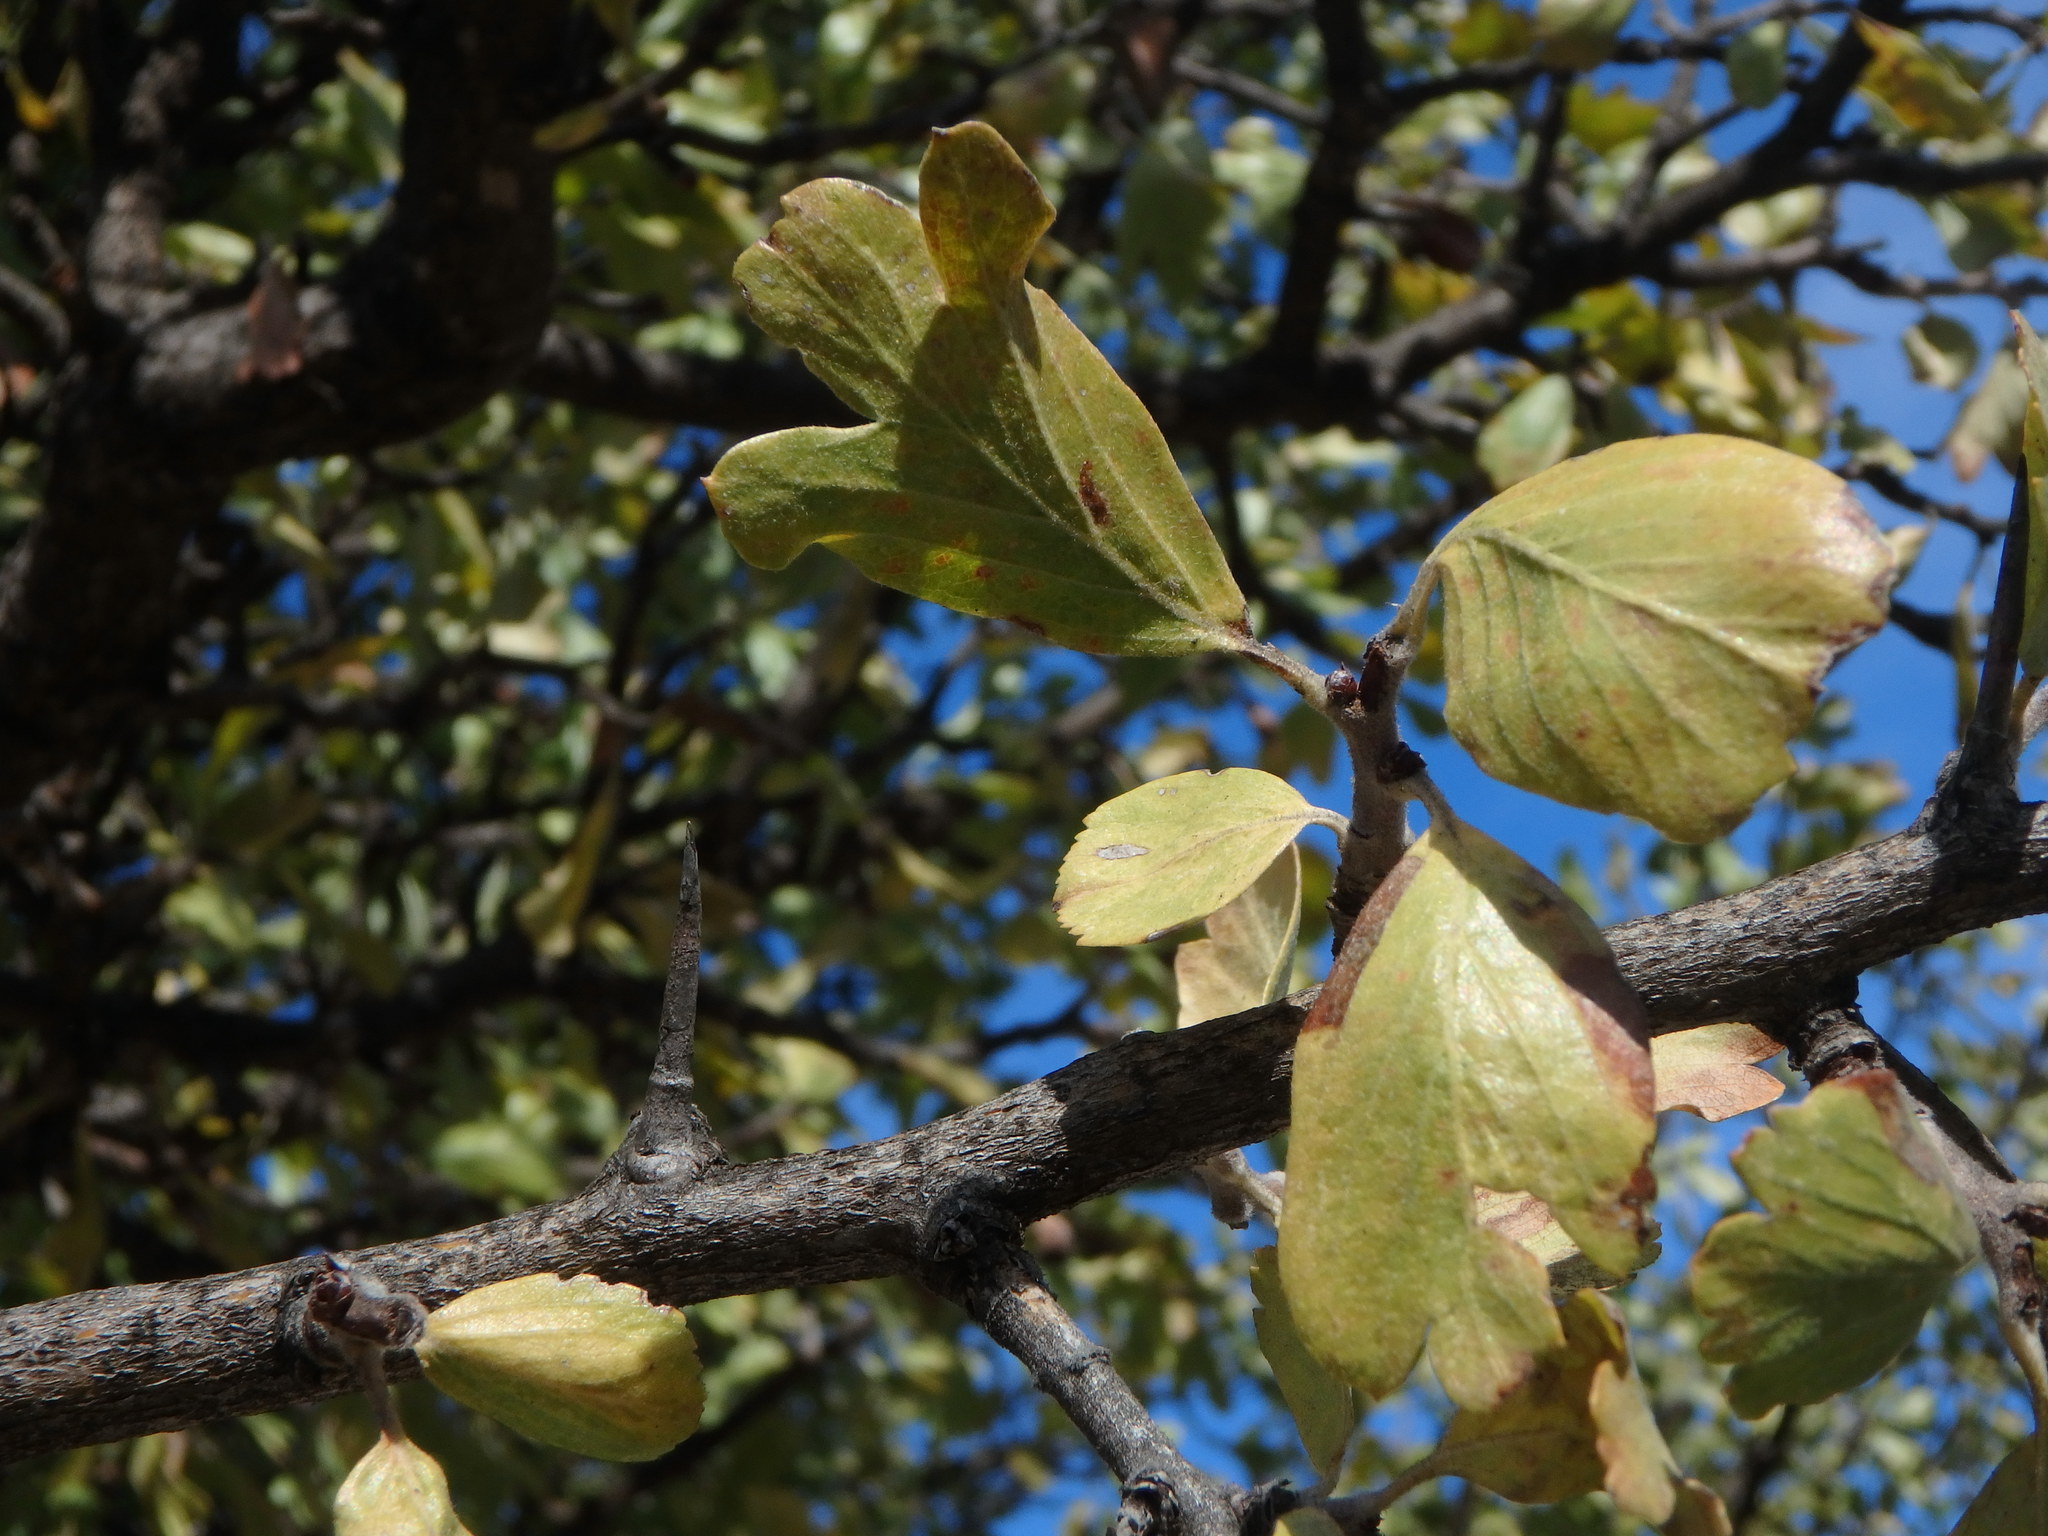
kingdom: Plantae
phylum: Tracheophyta
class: Magnoliopsida
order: Rosales
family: Rosaceae
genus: Crataegus
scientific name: Crataegus azarolus
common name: Azarole
